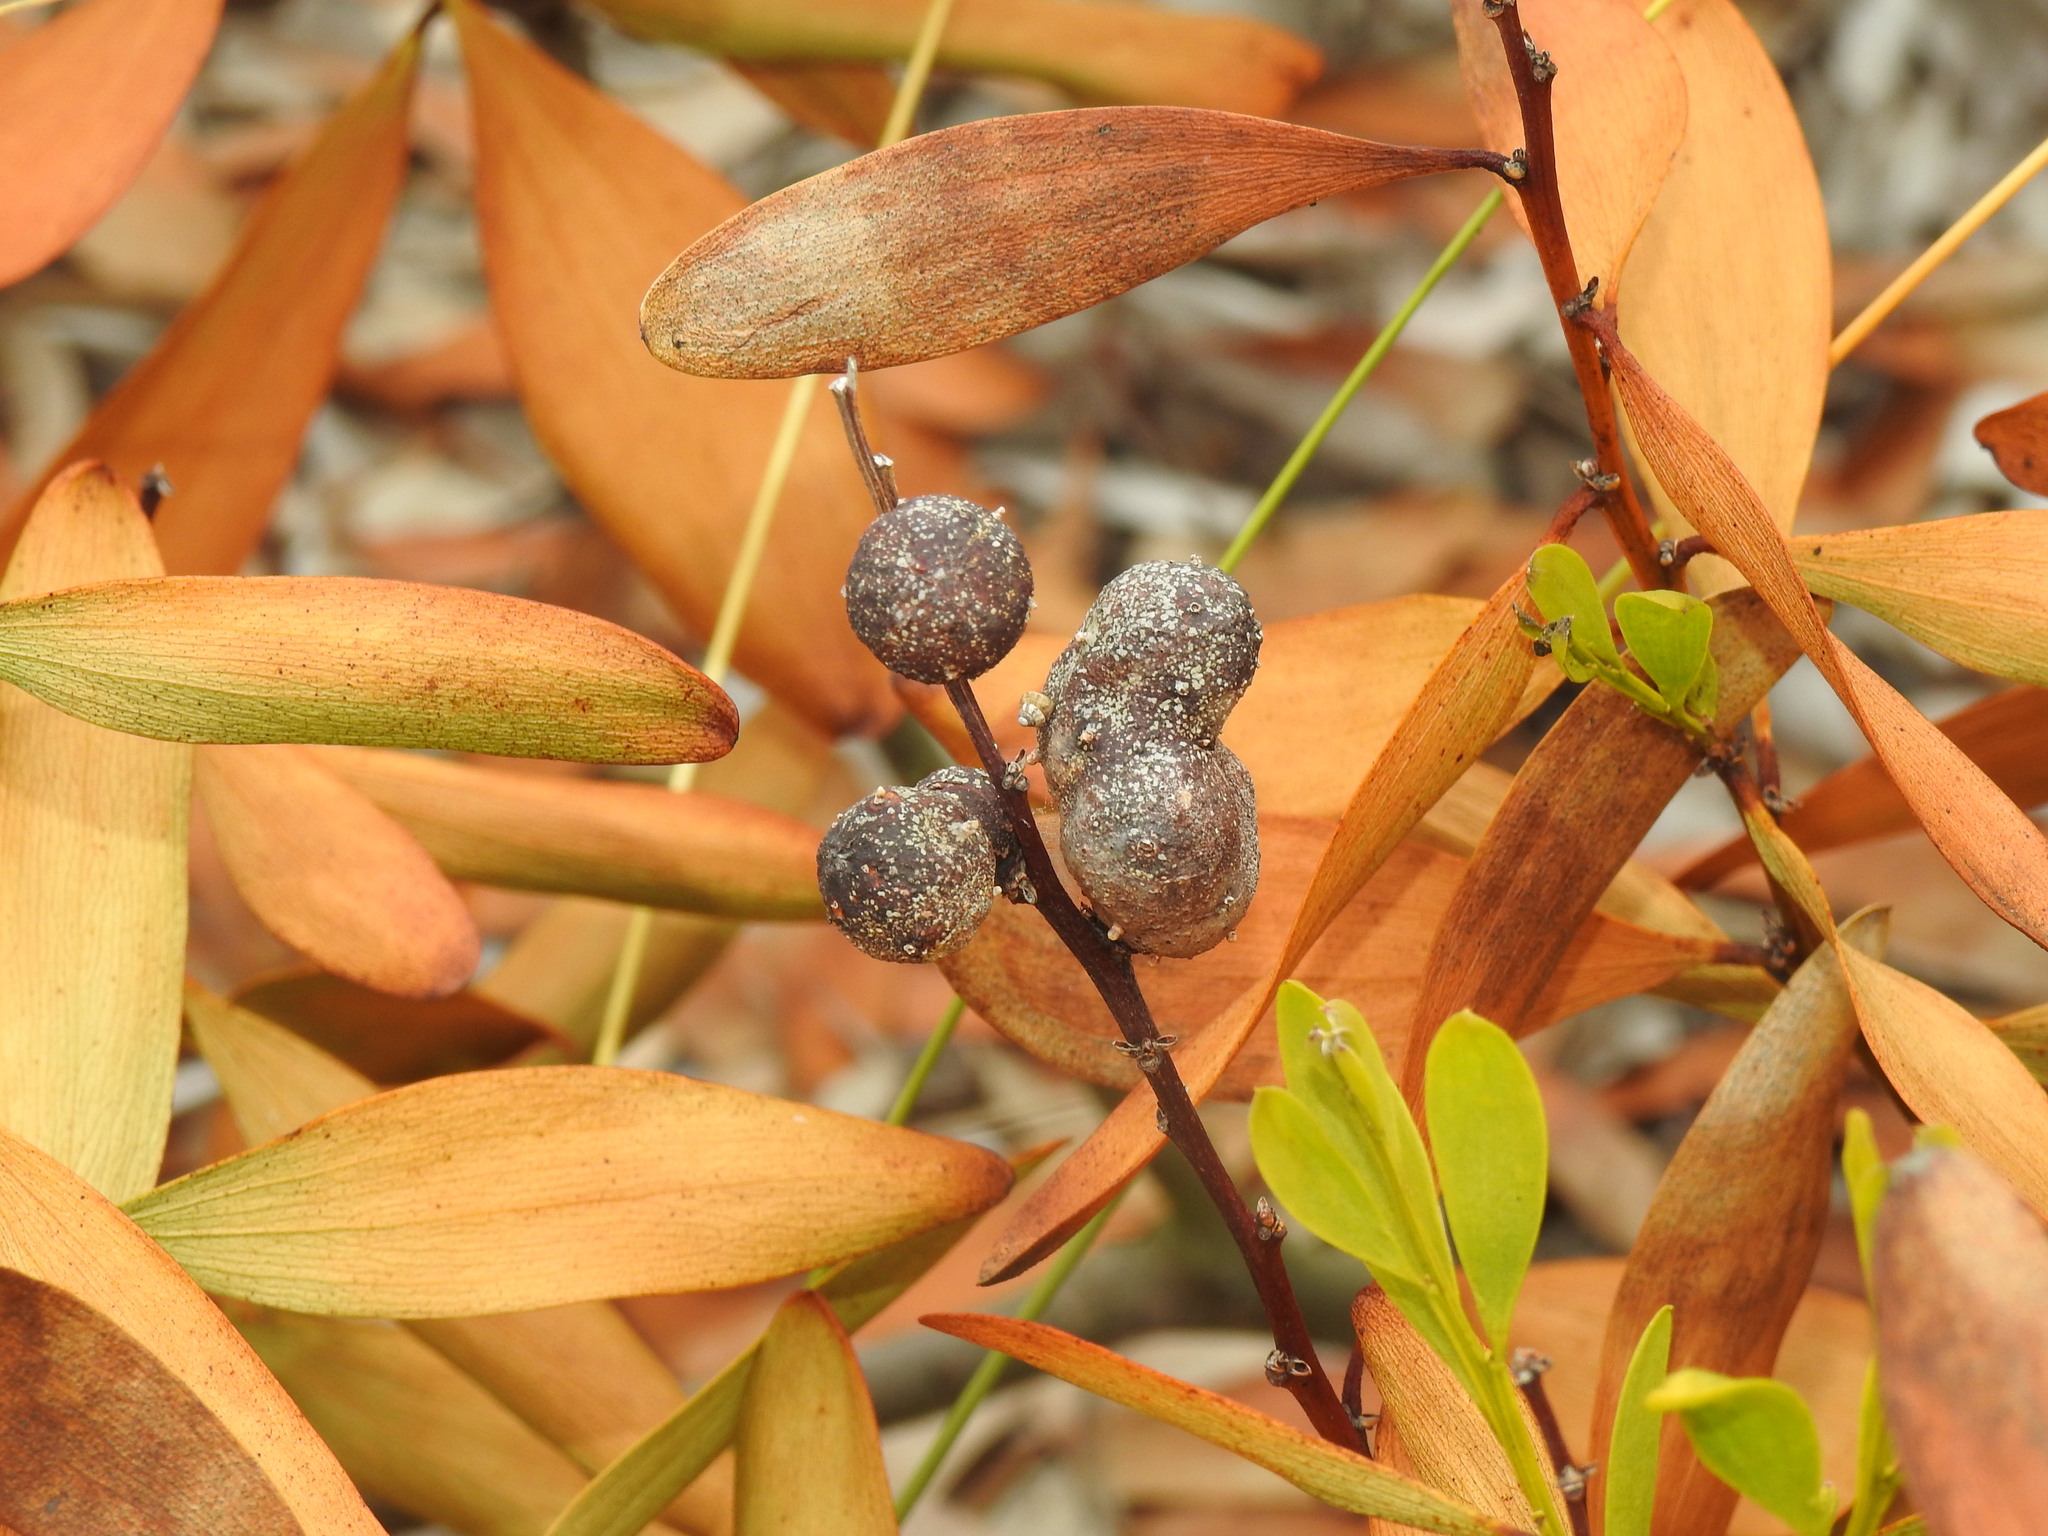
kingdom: Animalia
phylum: Arthropoda
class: Insecta
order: Hymenoptera
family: Pteromalidae
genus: Trichilogaster
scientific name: Trichilogaster acaciaelongifoliae
